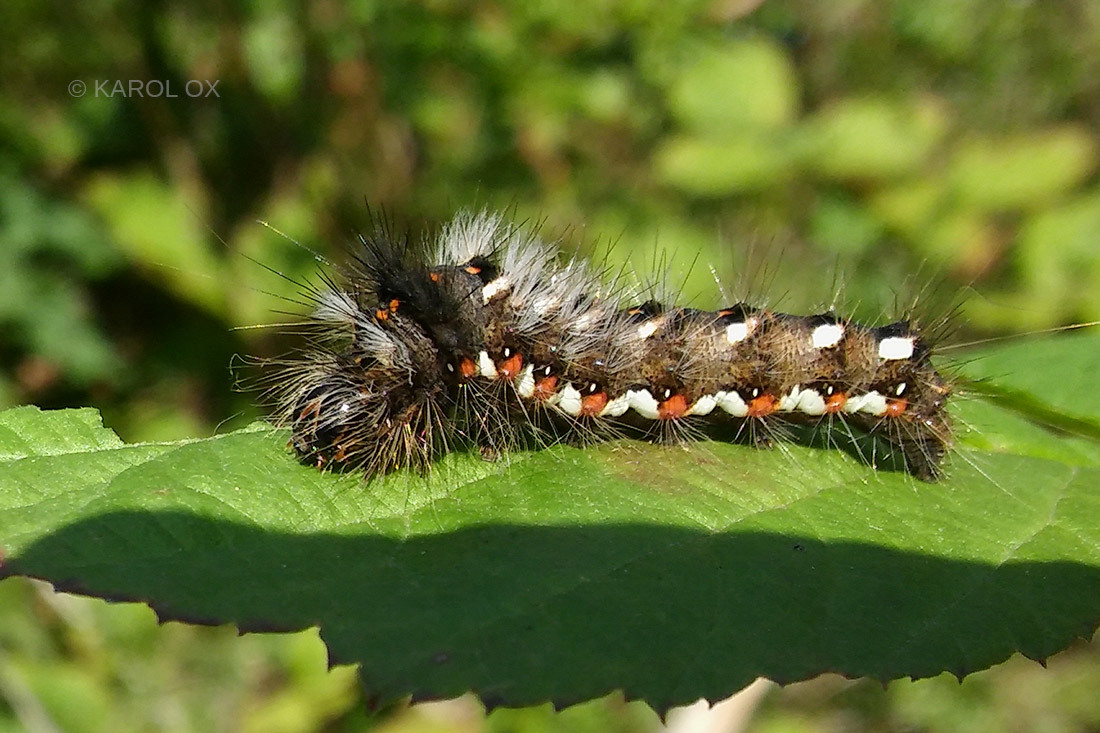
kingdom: Animalia
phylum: Arthropoda
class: Insecta
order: Lepidoptera
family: Noctuidae
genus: Acronicta
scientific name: Acronicta rumicis
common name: Knot grass
